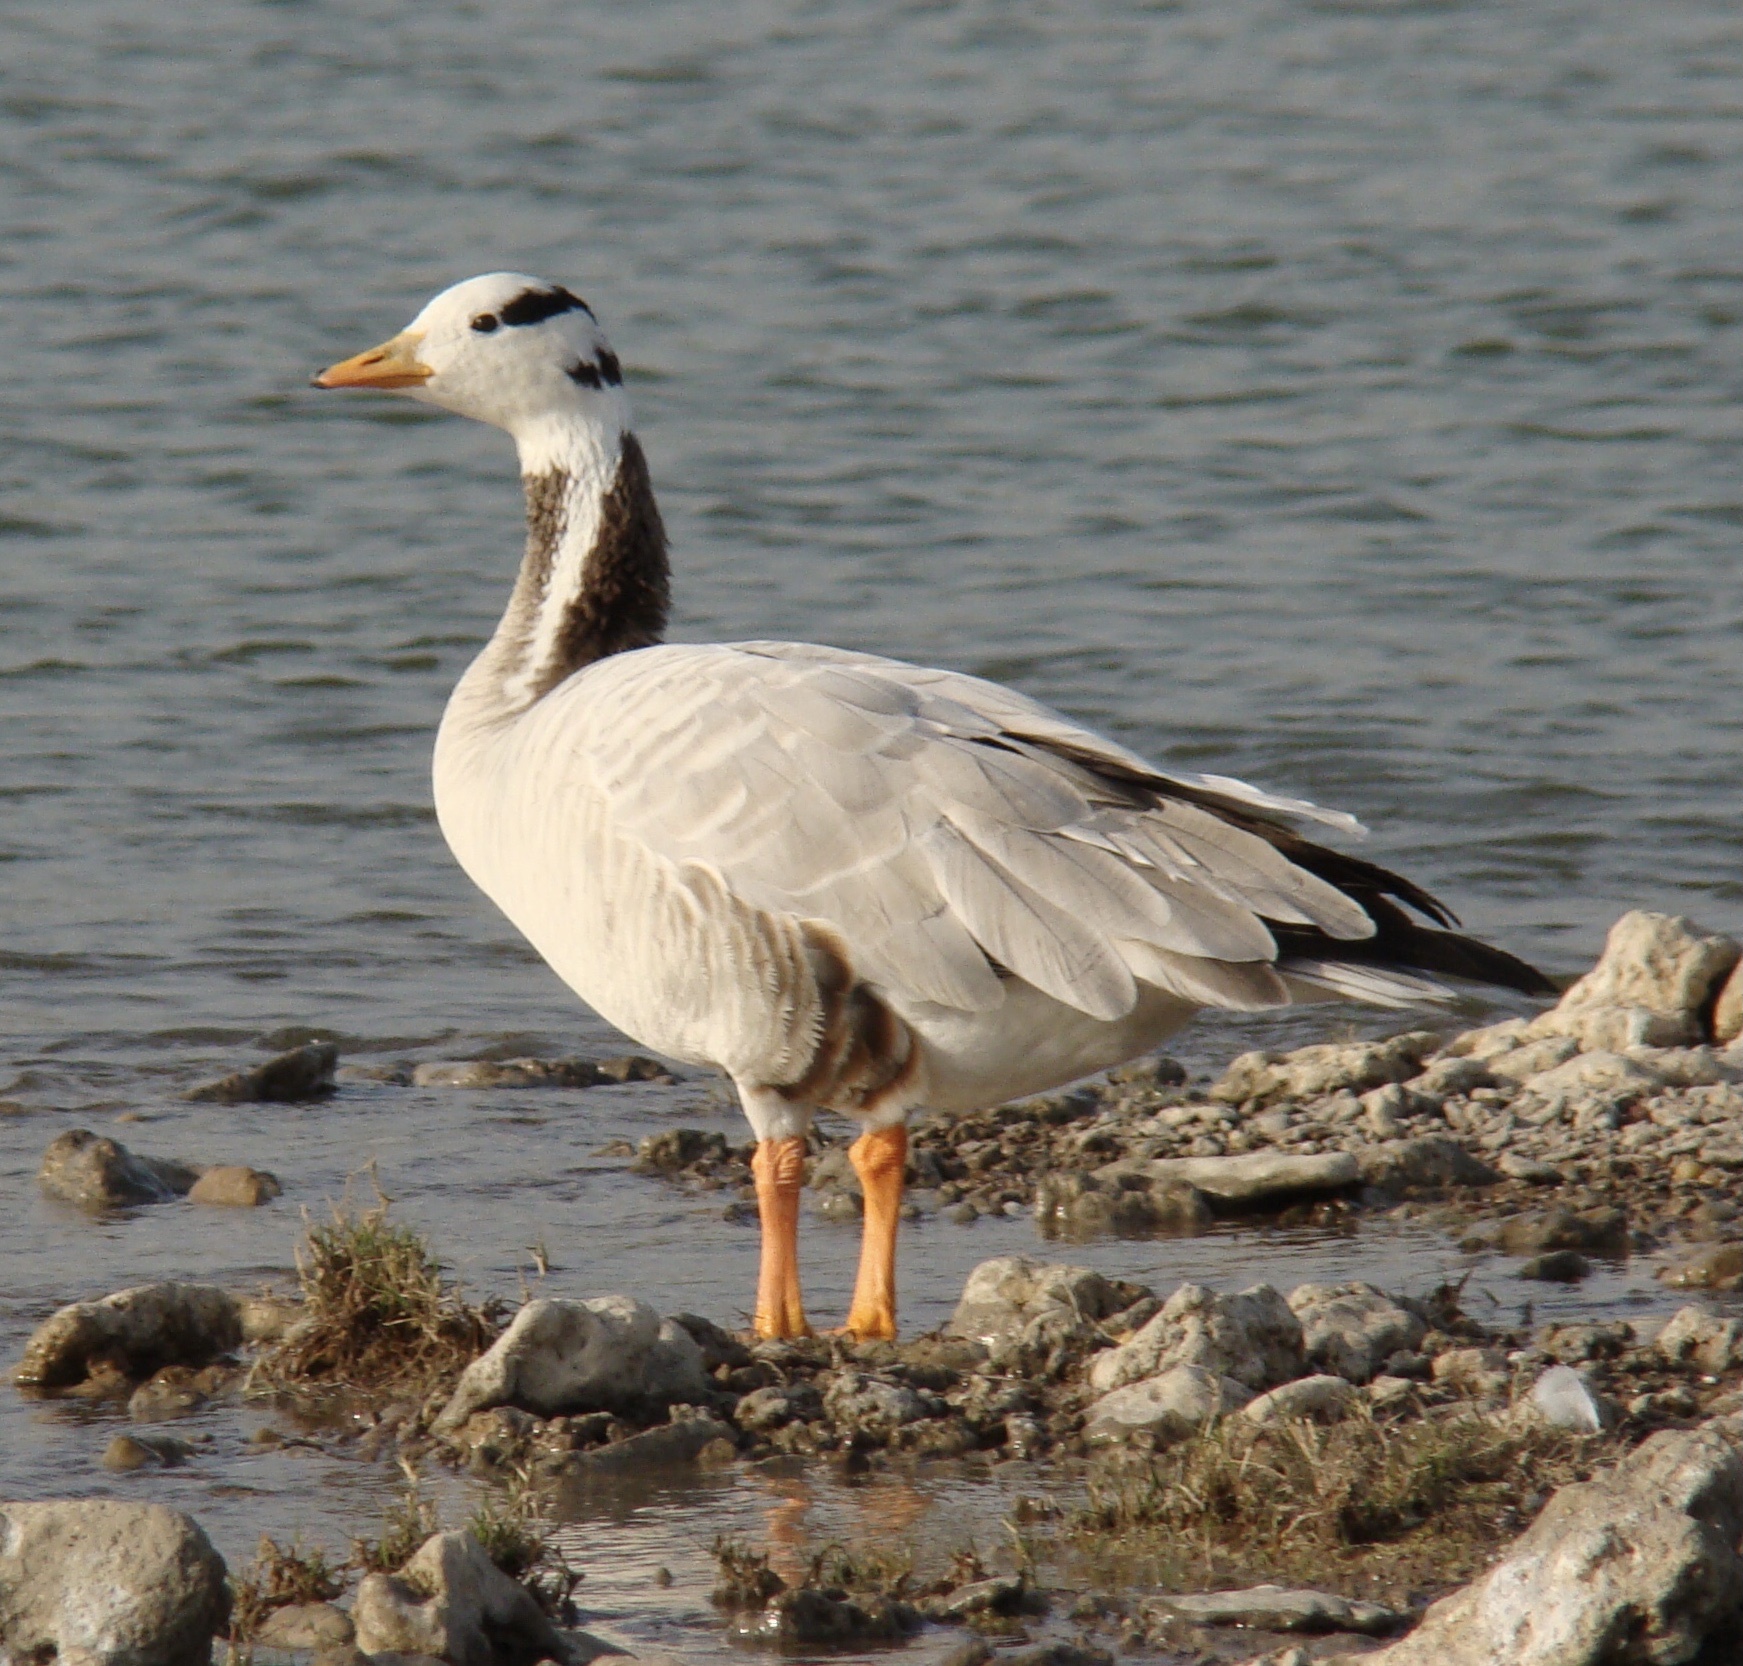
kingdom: Animalia
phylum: Chordata
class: Aves
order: Anseriformes
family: Anatidae
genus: Anser
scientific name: Anser indicus
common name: Bar-headed goose
